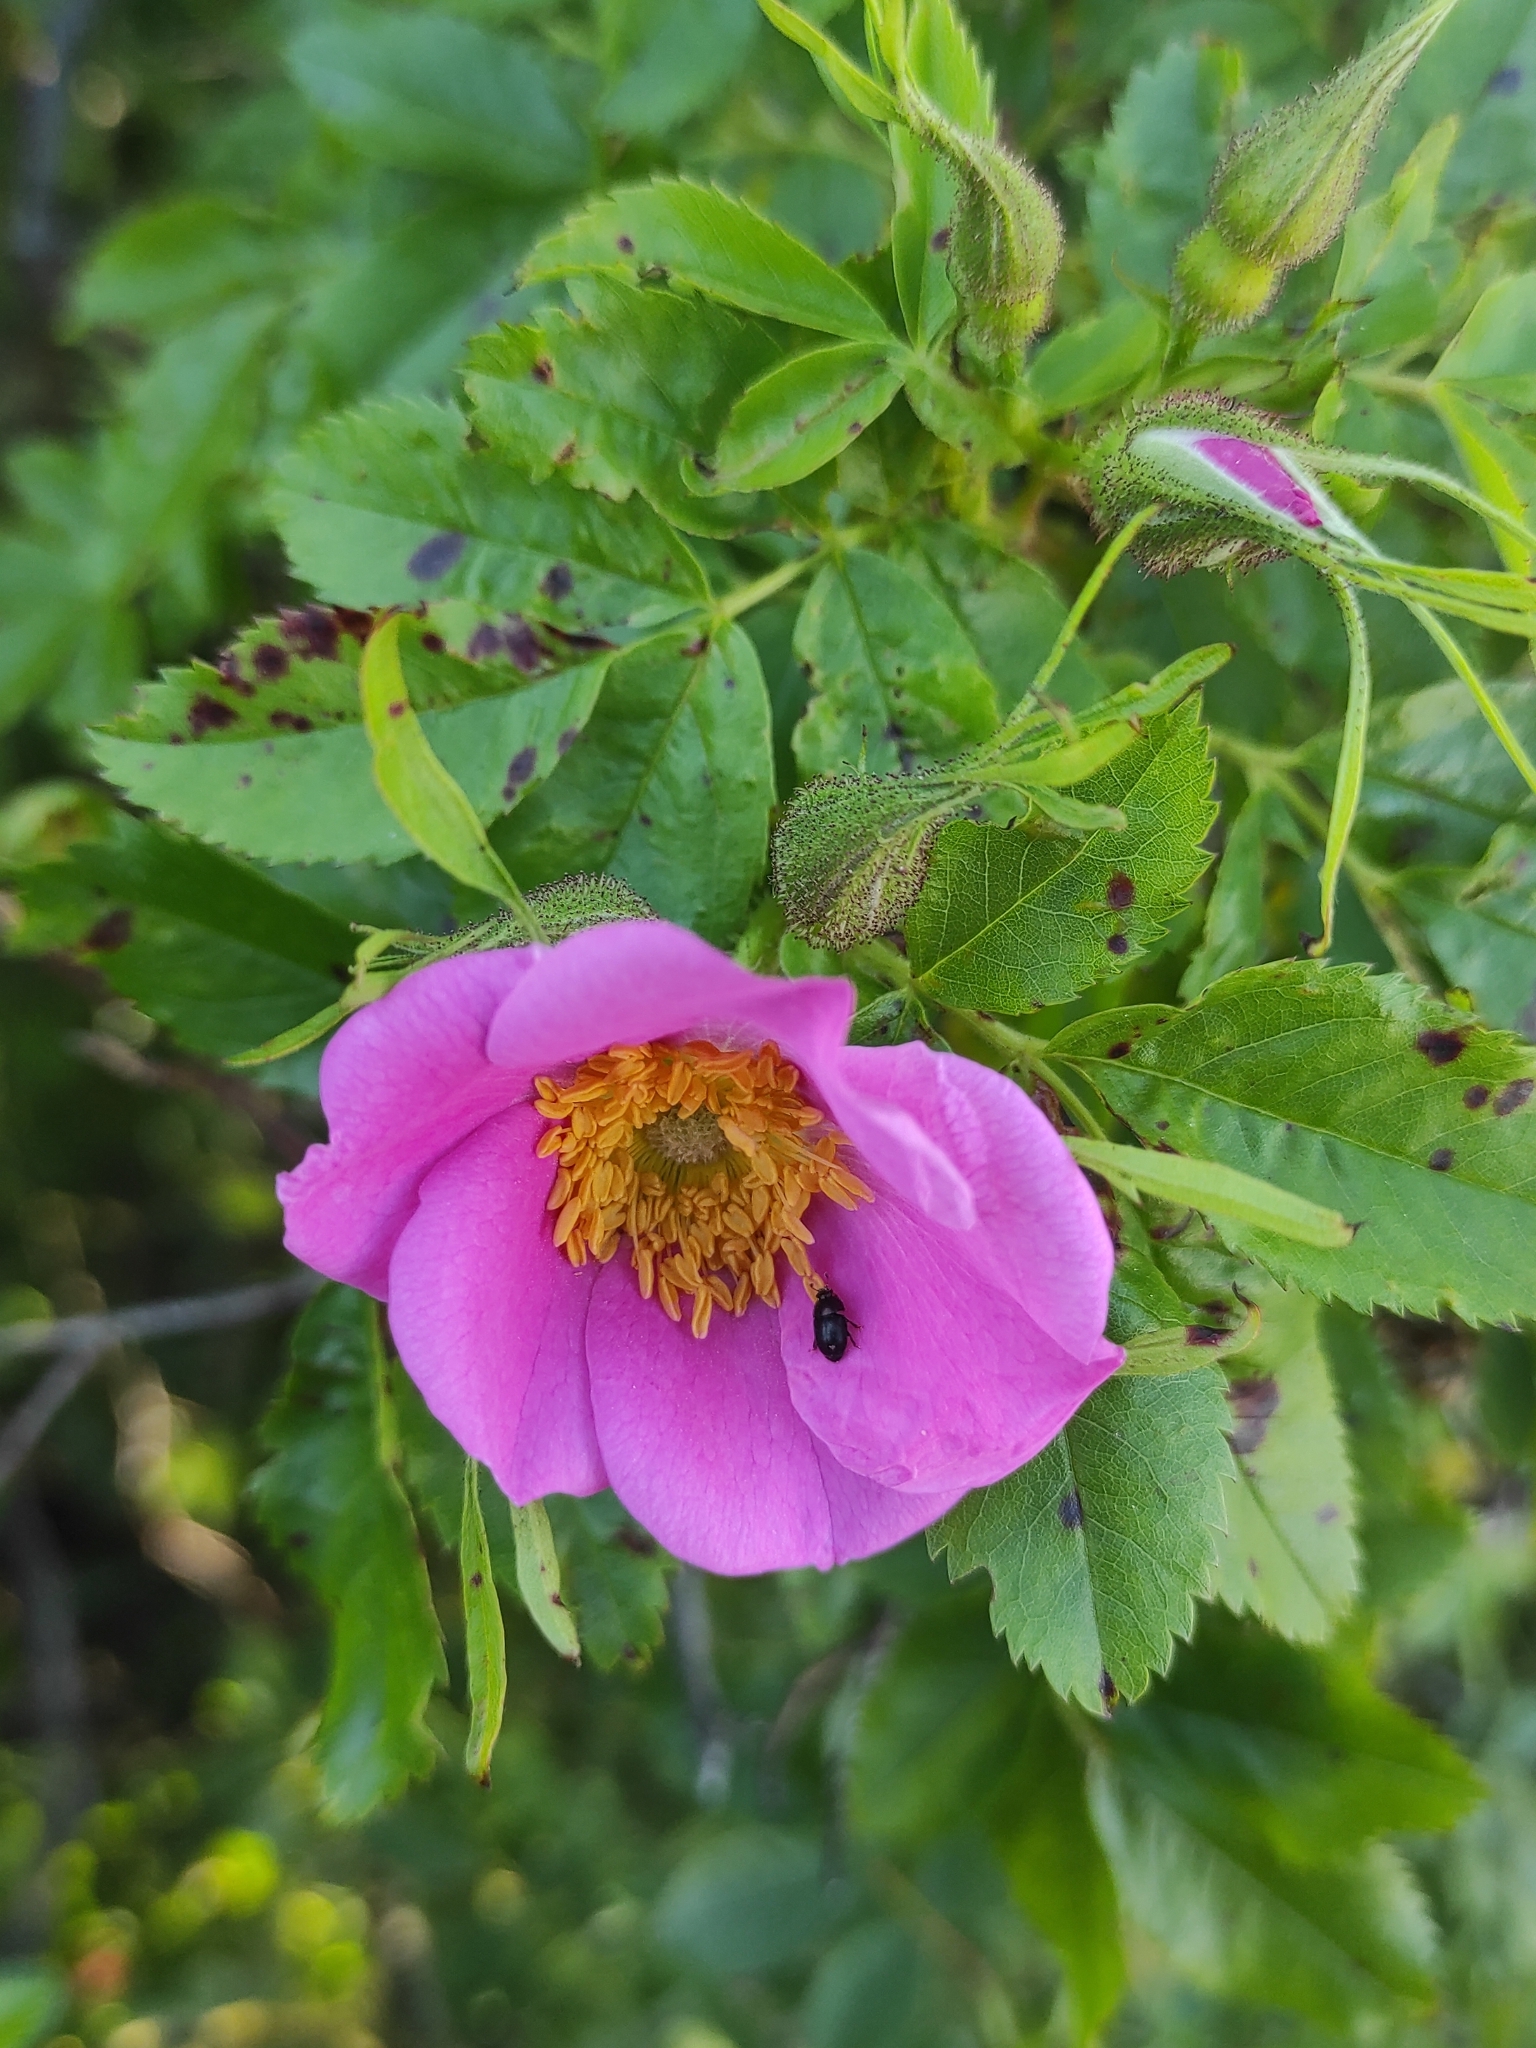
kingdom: Plantae
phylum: Tracheophyta
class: Magnoliopsida
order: Rosales
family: Rosaceae
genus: Rosa
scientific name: Rosa rugosa
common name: Japanese rose
